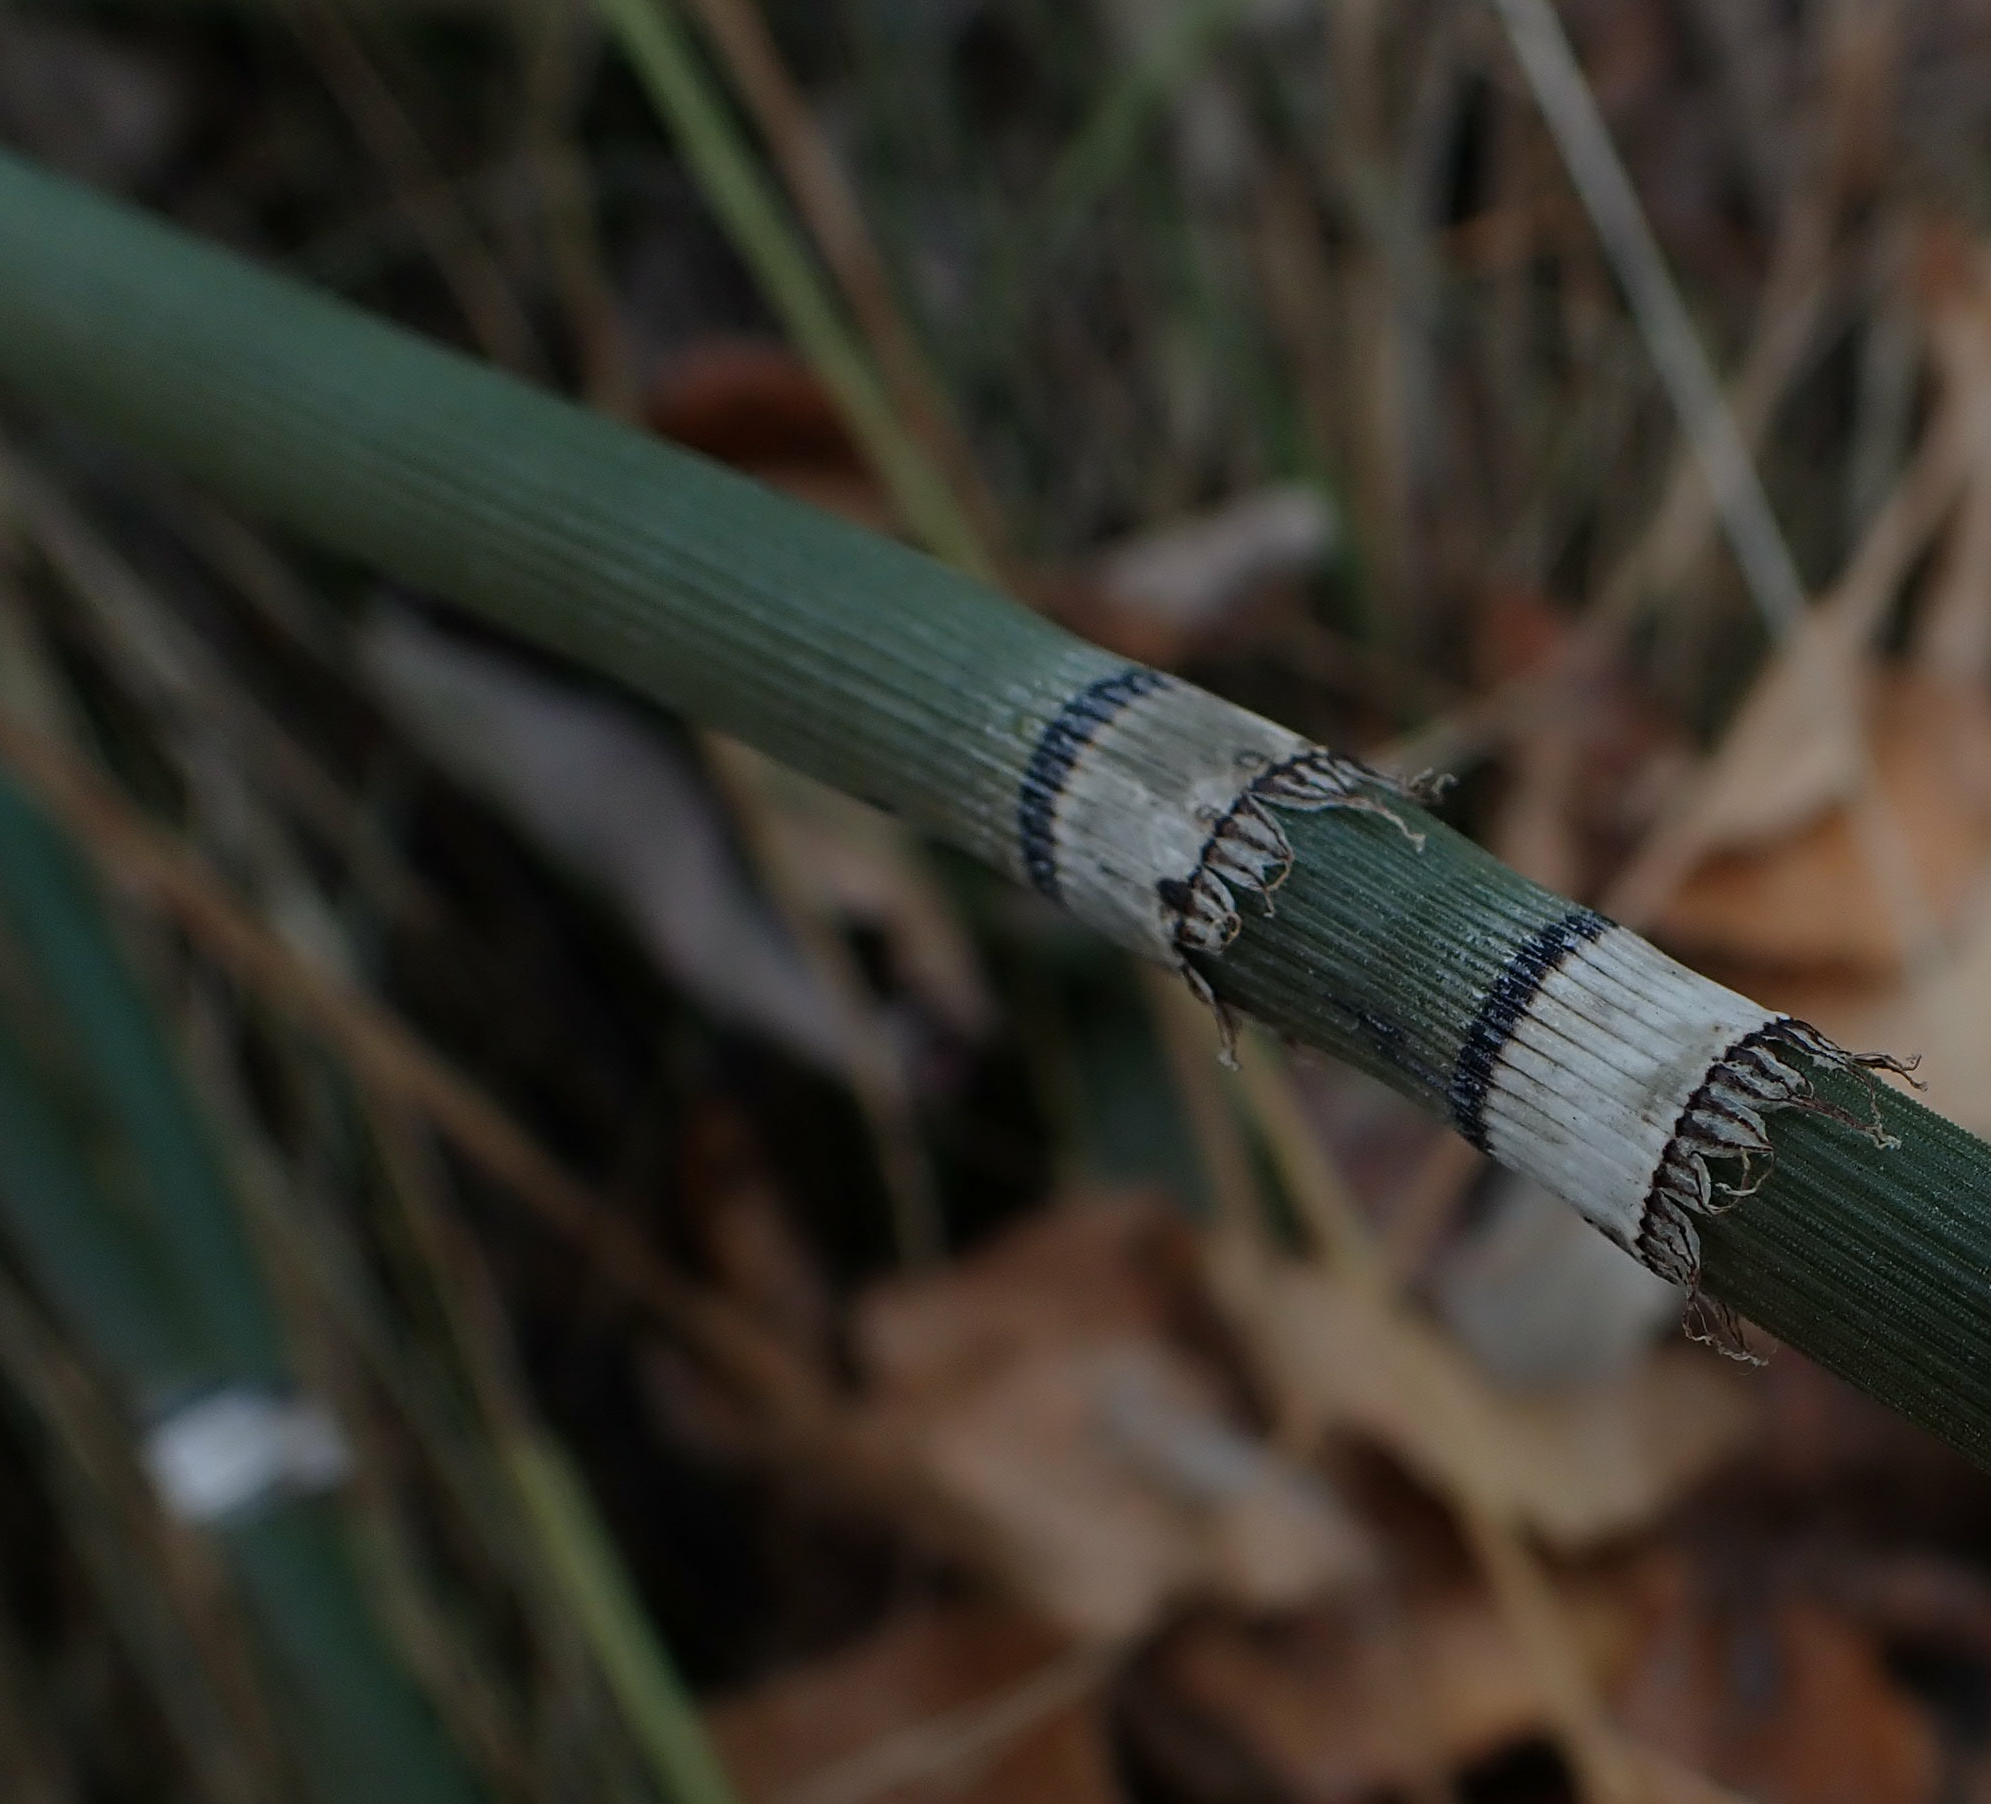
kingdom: Plantae
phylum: Tracheophyta
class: Polypodiopsida
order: Equisetales
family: Equisetaceae
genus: Equisetum
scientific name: Equisetum praealtum
